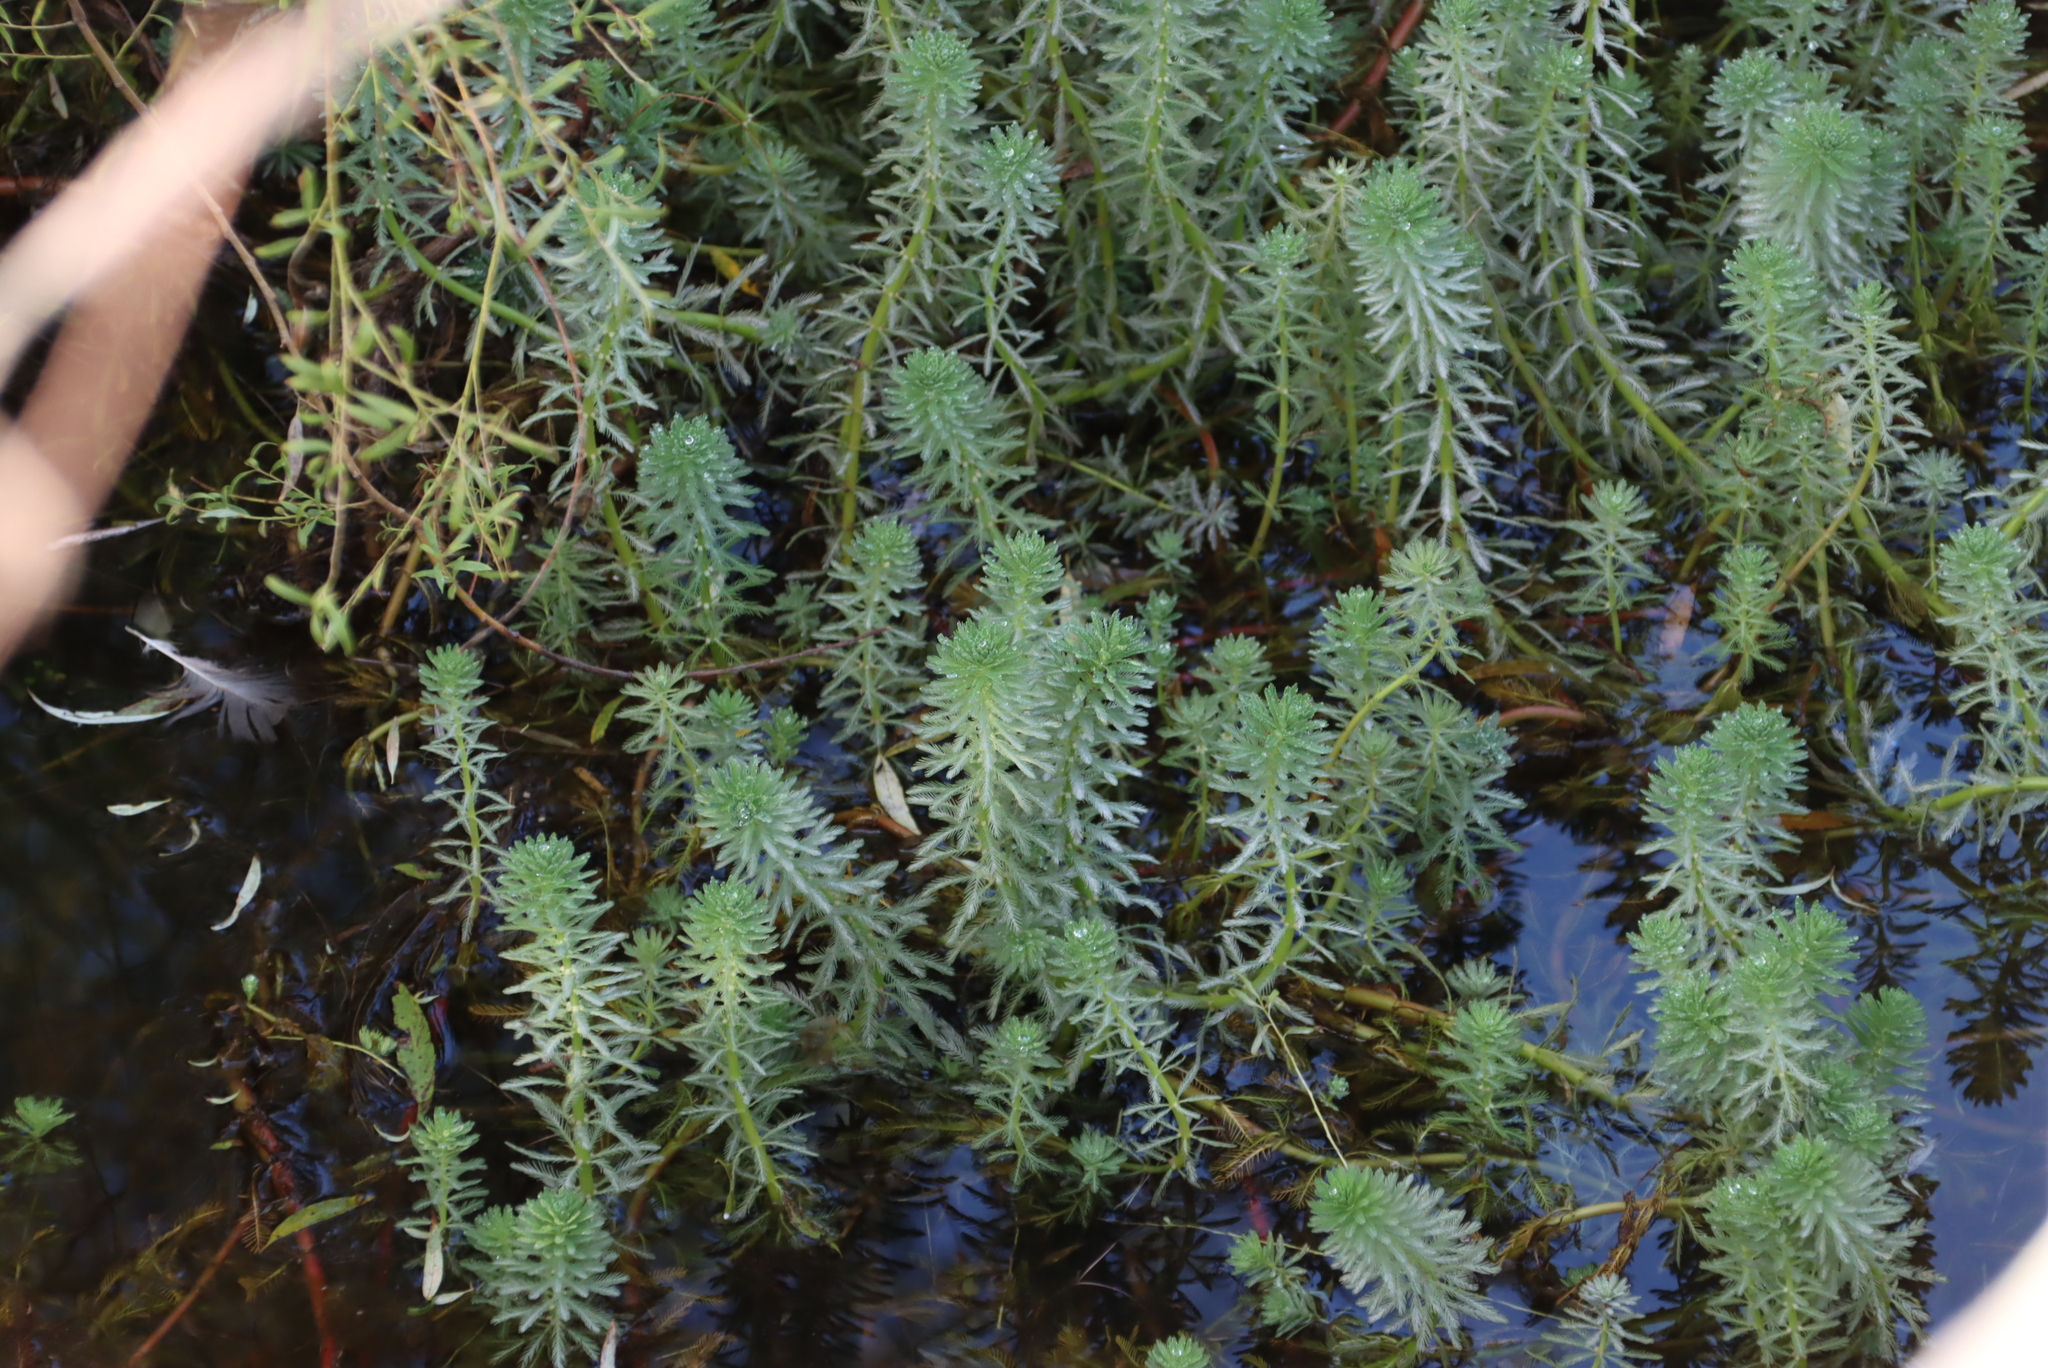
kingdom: Plantae
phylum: Tracheophyta
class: Magnoliopsida
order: Saxifragales
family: Haloragaceae
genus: Myriophyllum
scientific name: Myriophyllum aquaticum
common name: Parrot's feather
